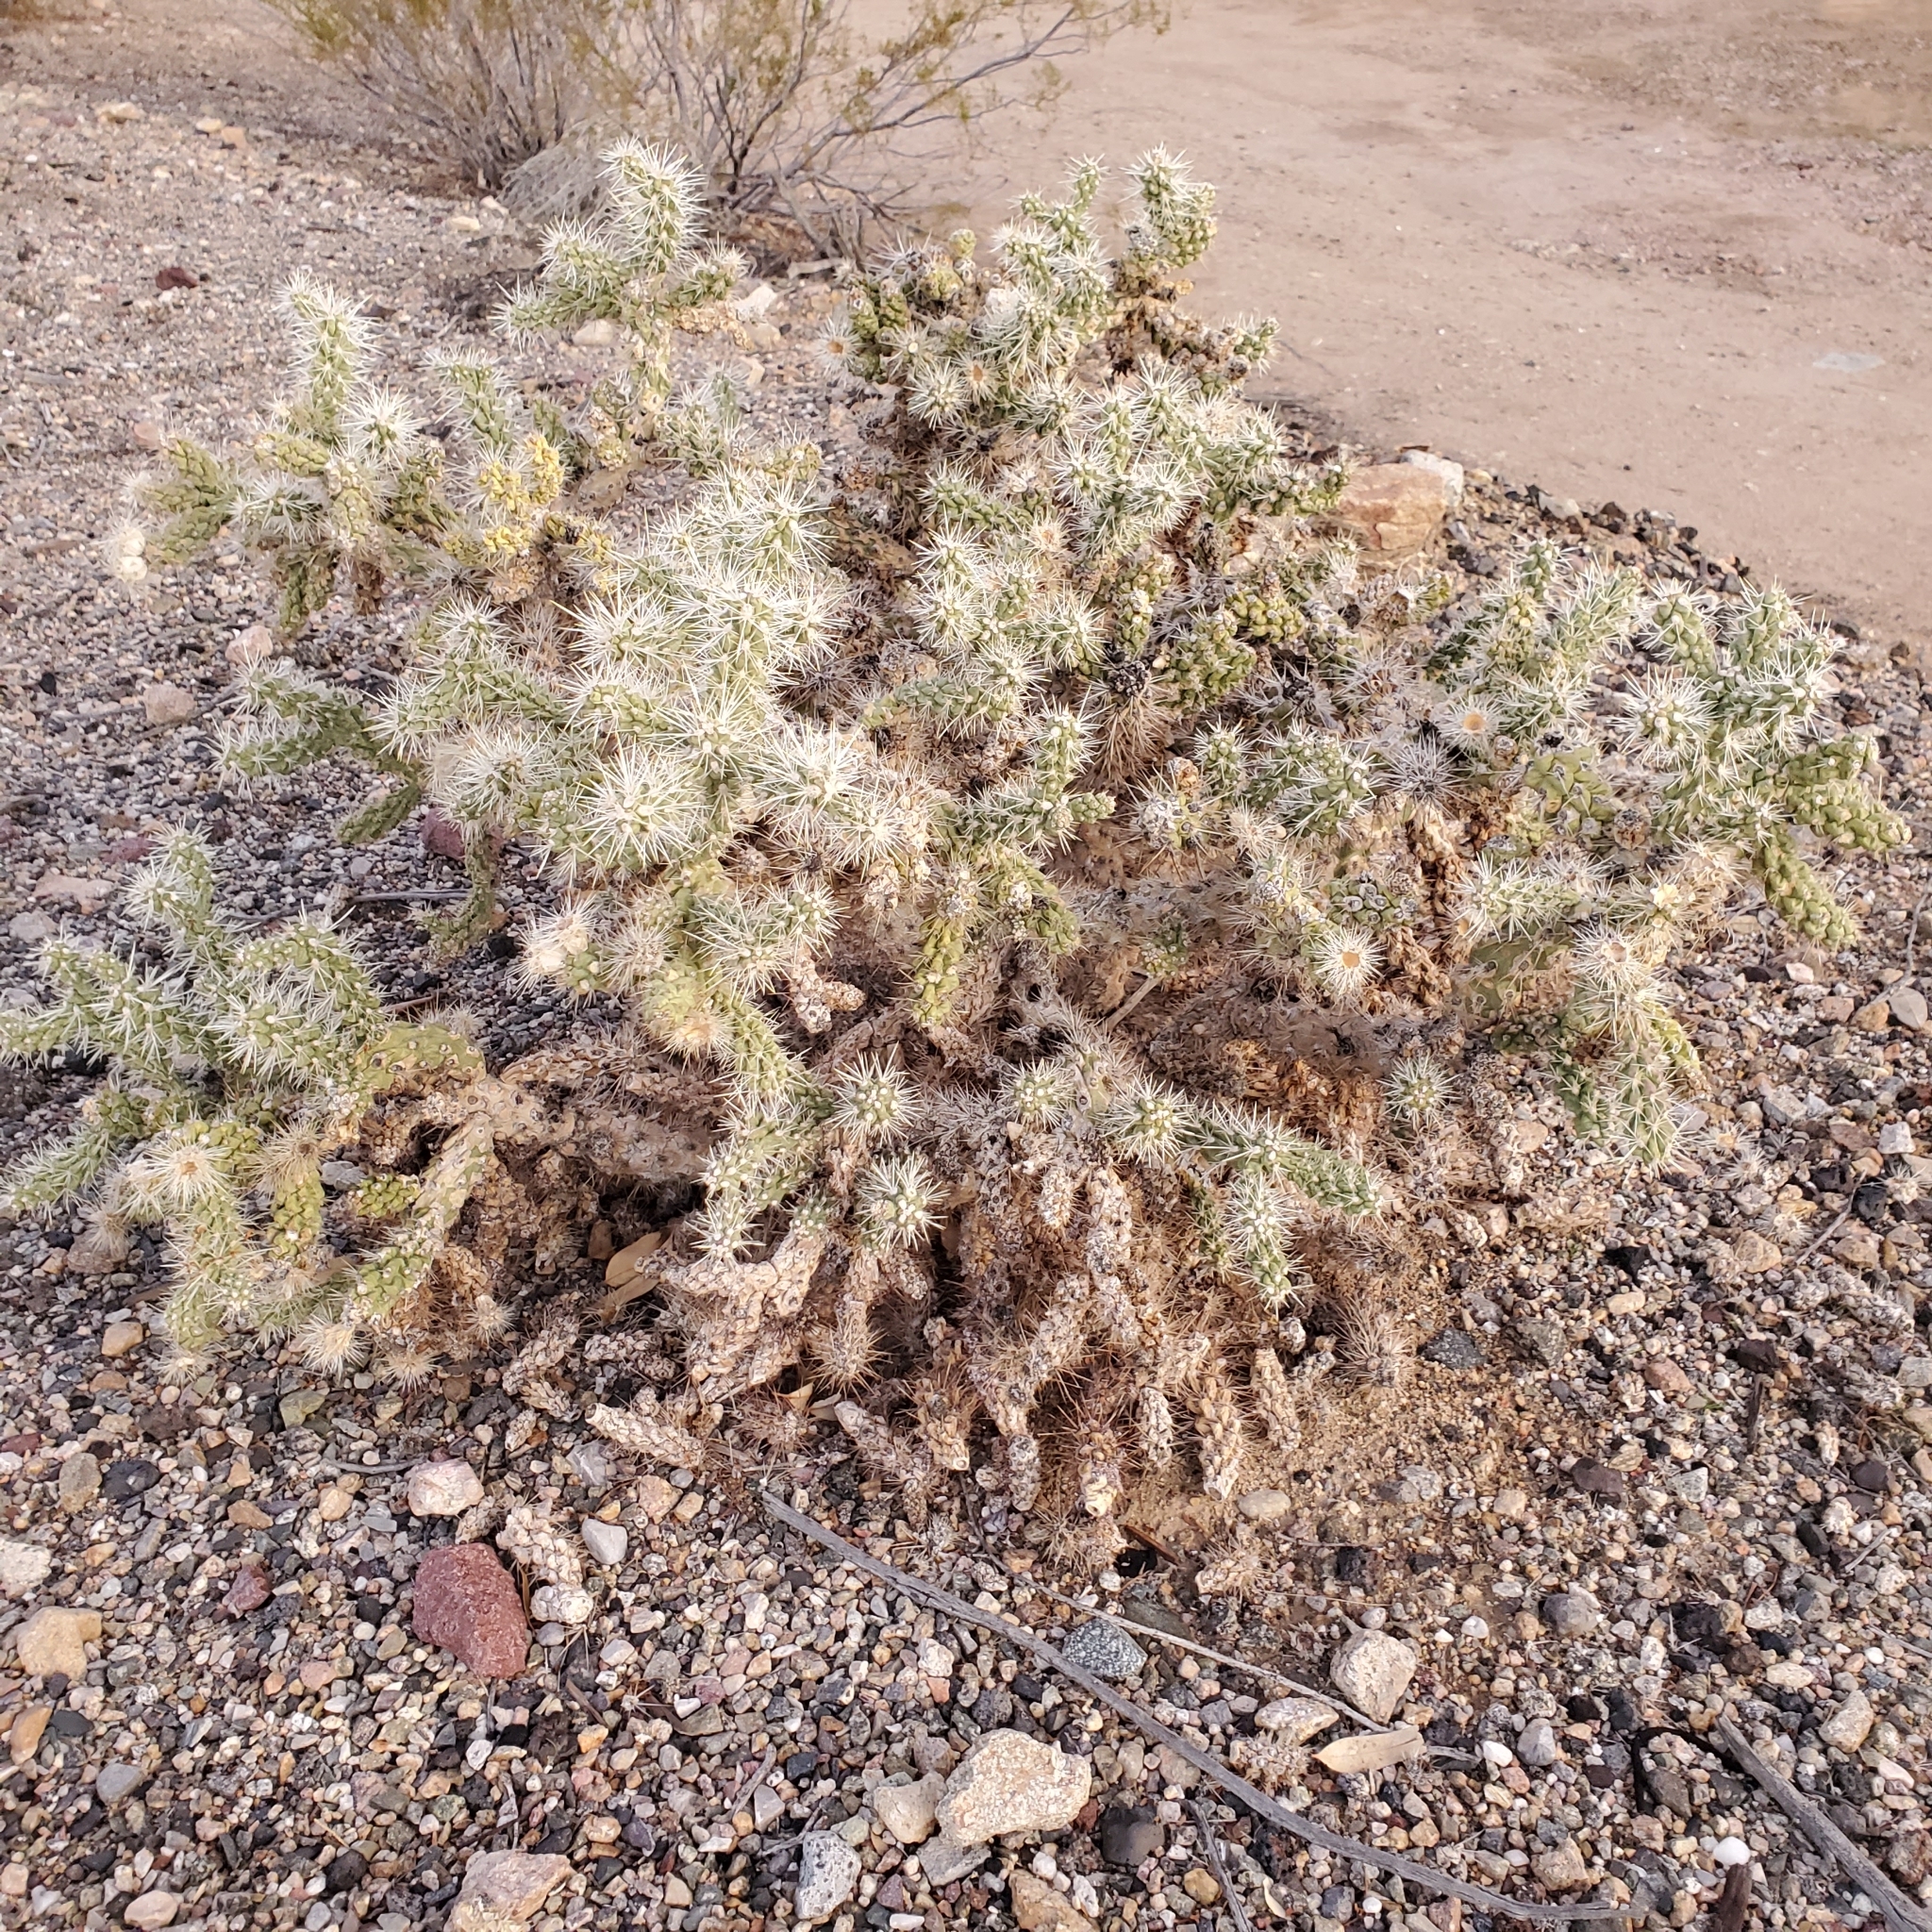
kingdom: Plantae
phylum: Tracheophyta
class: Magnoliopsida
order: Caryophyllales
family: Cactaceae
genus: Cylindropuntia
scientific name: Cylindropuntia echinocarpa
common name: Ground cholla
